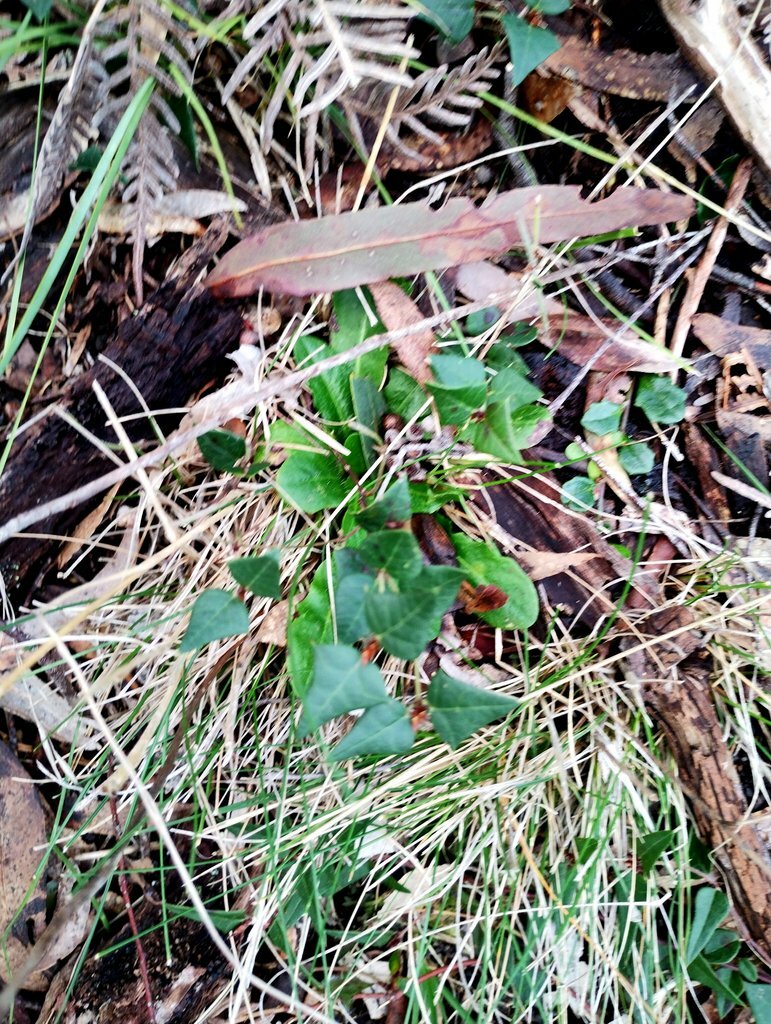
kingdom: Plantae
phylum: Tracheophyta
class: Magnoliopsida
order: Fabales
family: Fabaceae
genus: Platylobium
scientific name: Platylobium obtusangulum
